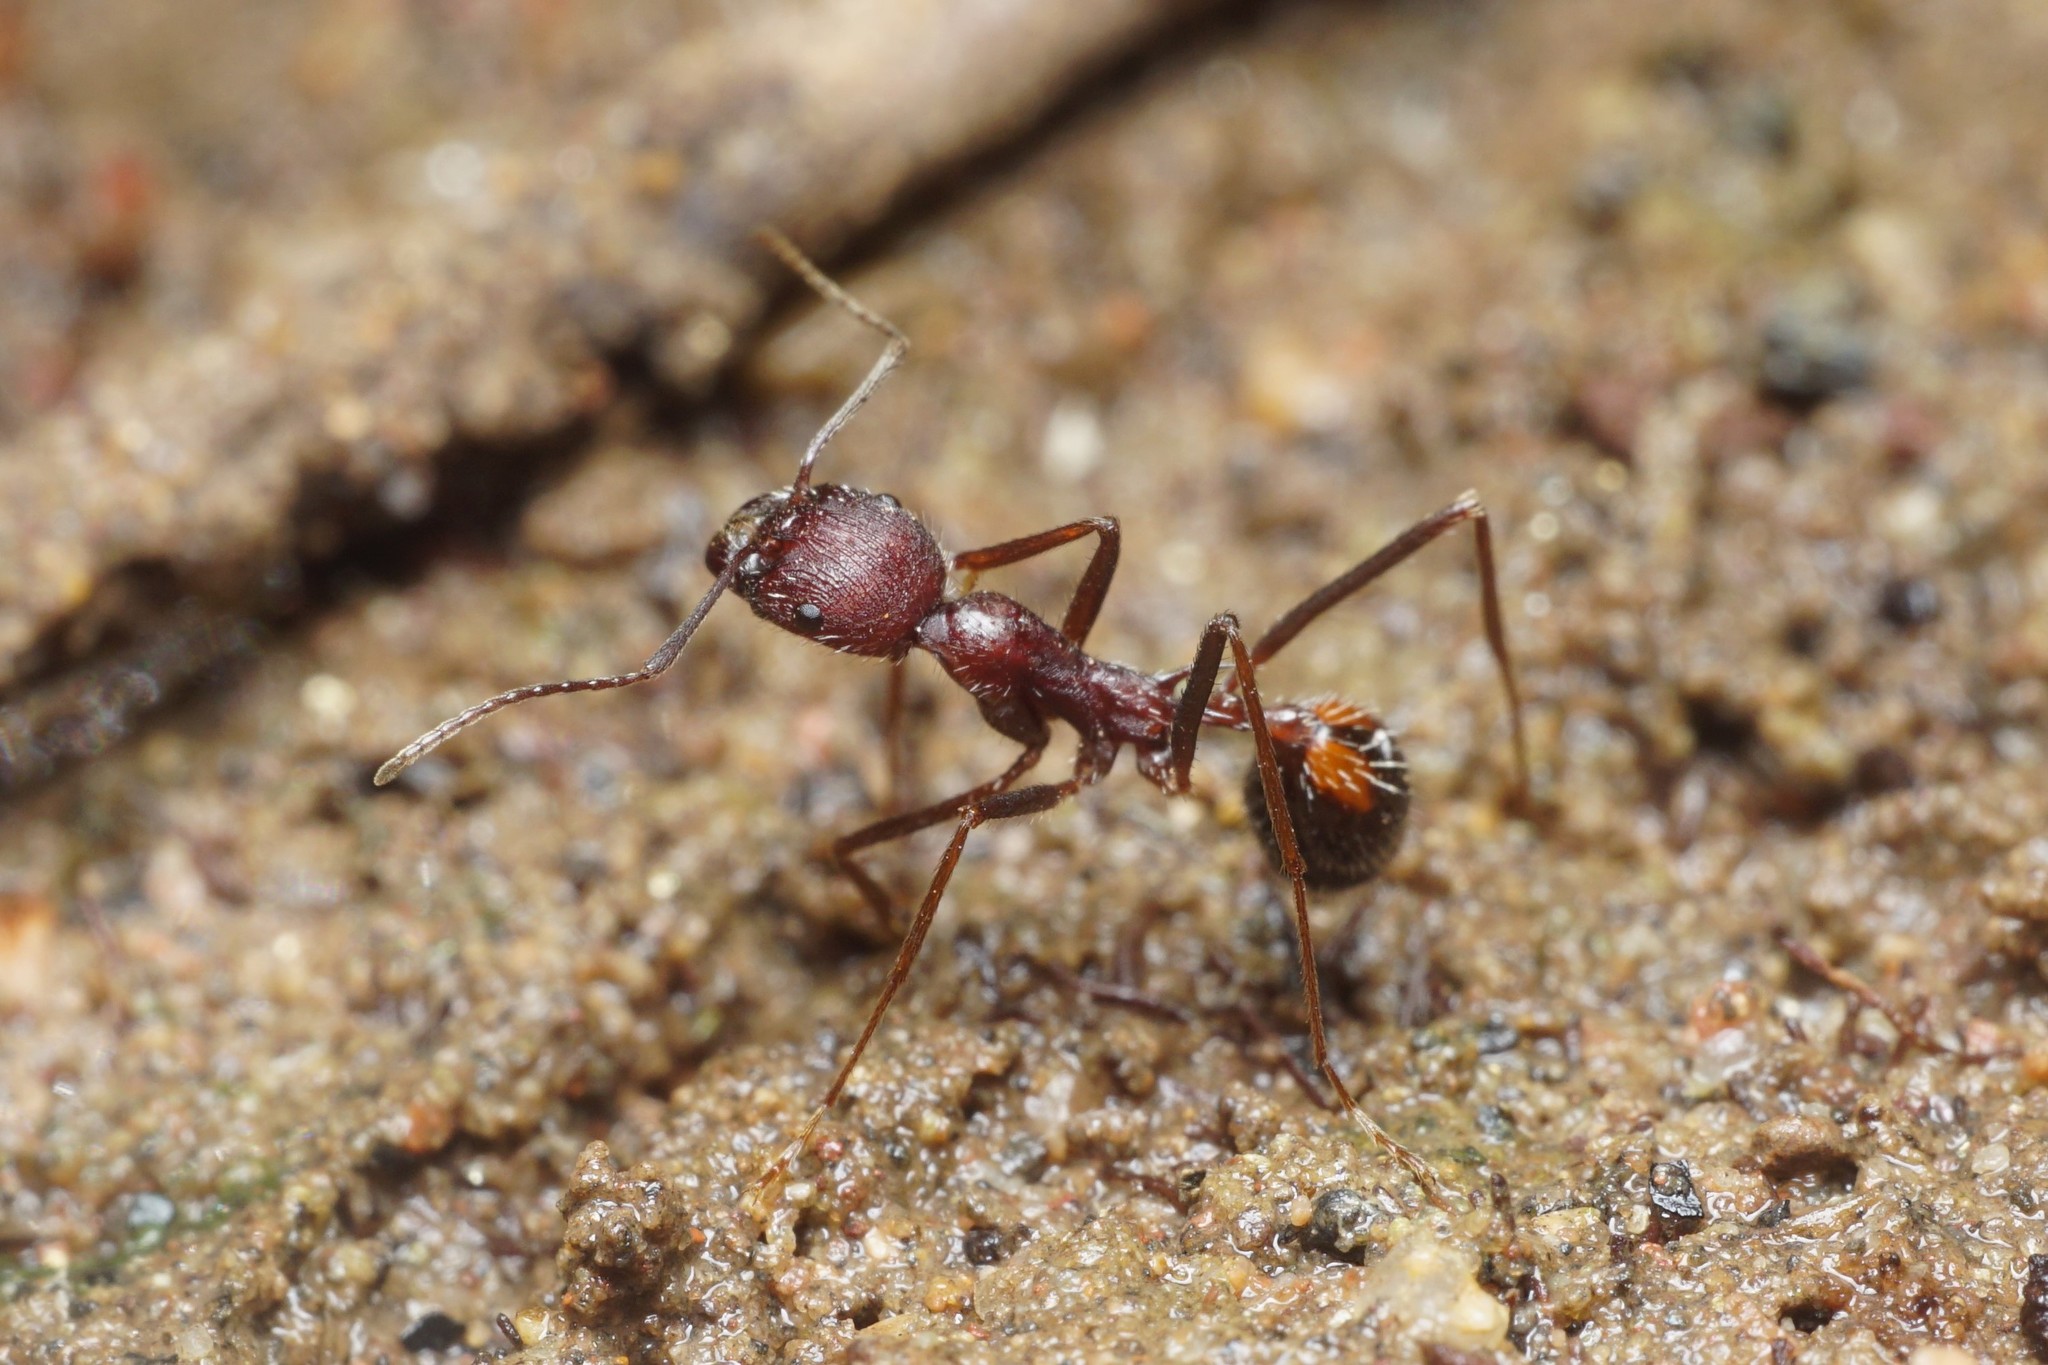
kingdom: Animalia
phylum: Arthropoda
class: Insecta
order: Hymenoptera
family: Formicidae
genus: Novomessor
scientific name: Novomessor albisetosa
